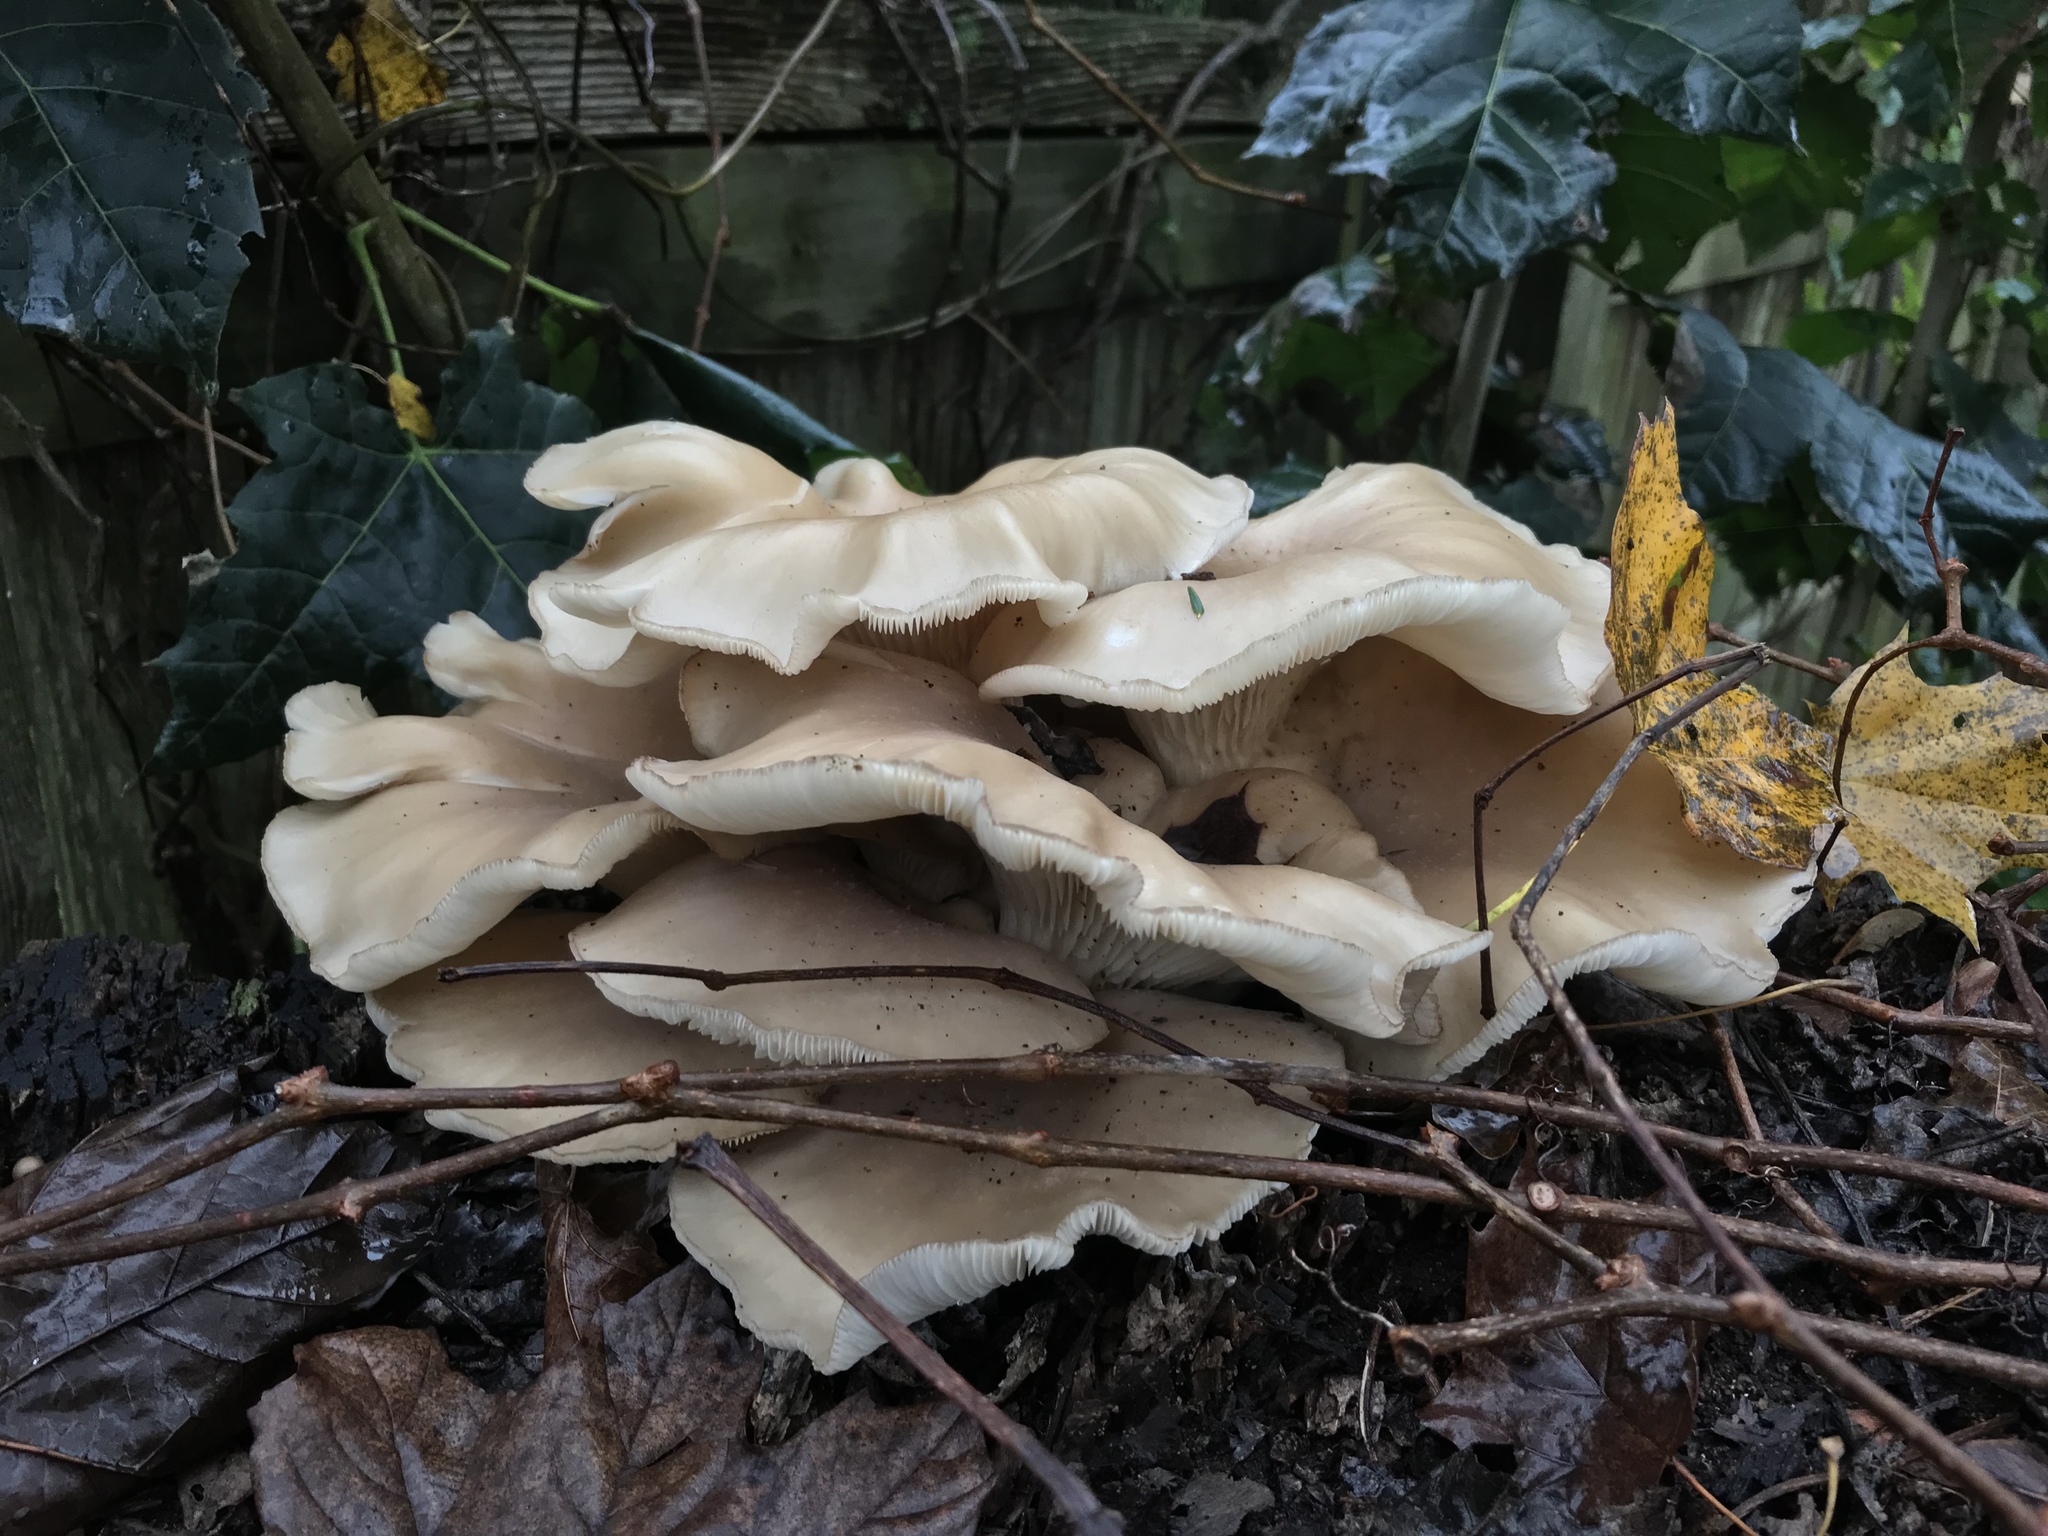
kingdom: Fungi
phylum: Basidiomycota
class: Agaricomycetes
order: Agaricales
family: Pleurotaceae
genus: Pleurotus
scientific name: Pleurotus ostreatus
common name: Oyster mushroom
